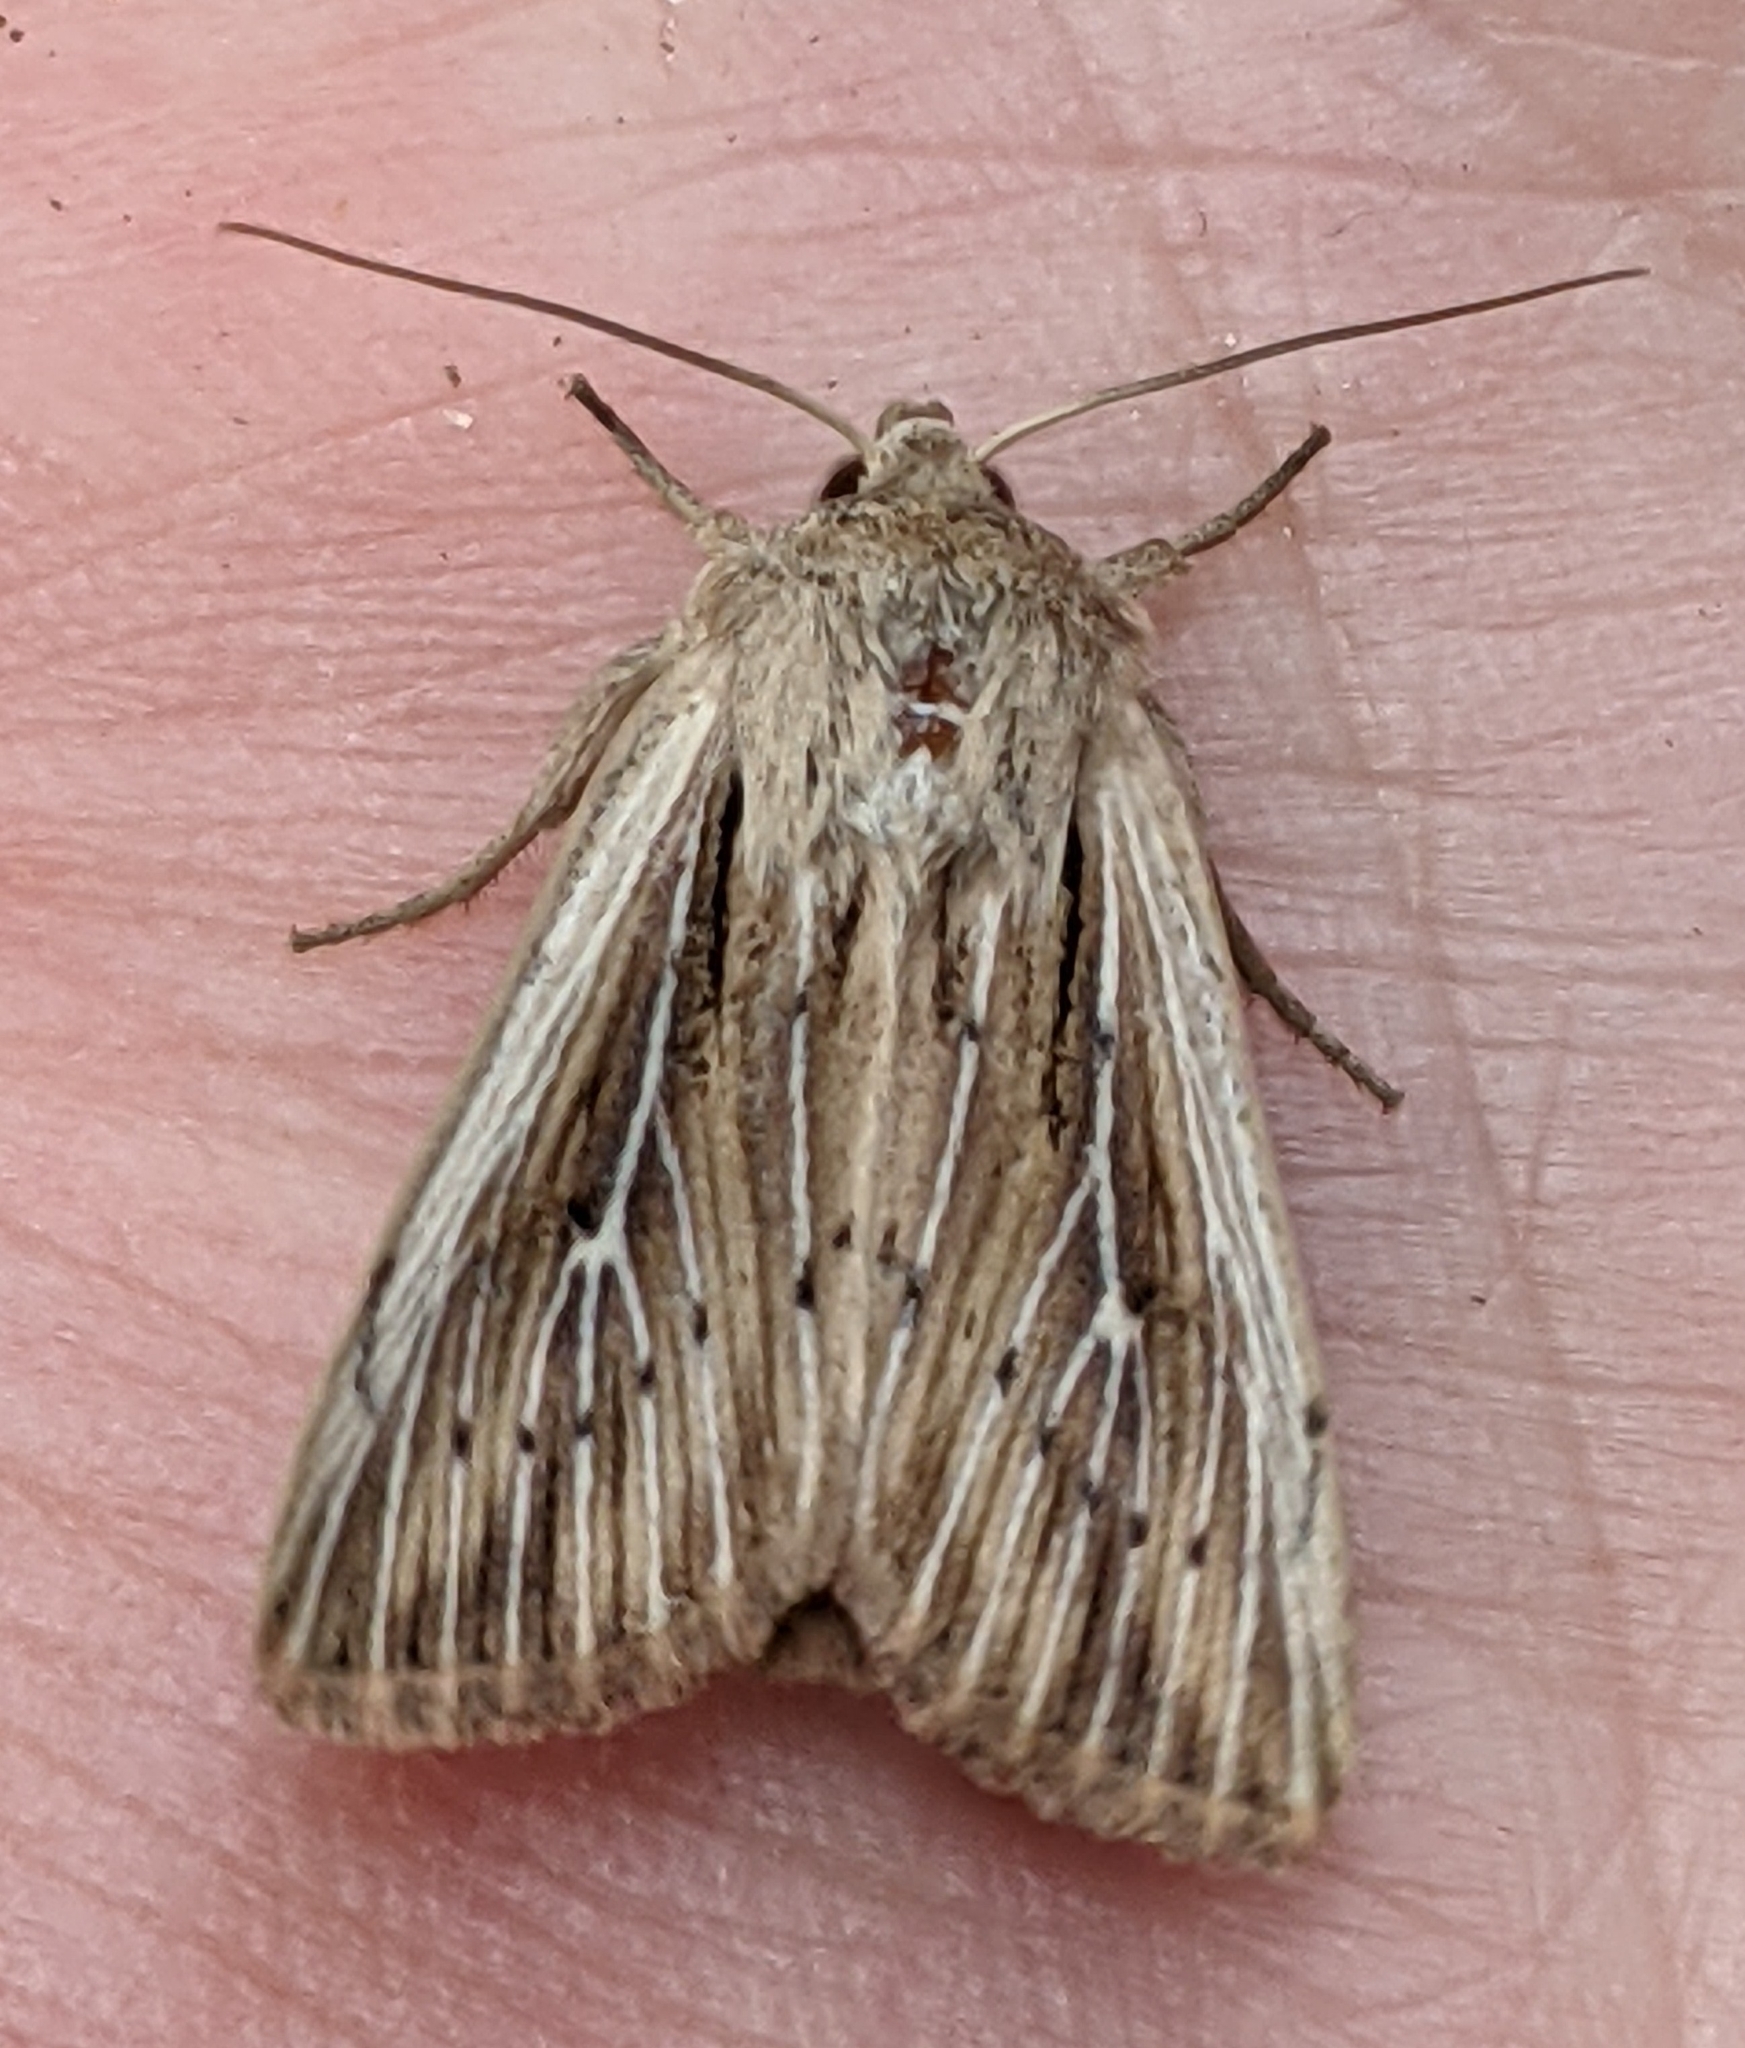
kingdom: Animalia
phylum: Arthropoda
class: Insecta
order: Lepidoptera
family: Noctuidae
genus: Leucania
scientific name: Leucania insueta
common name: Heterodox wainscot moth
